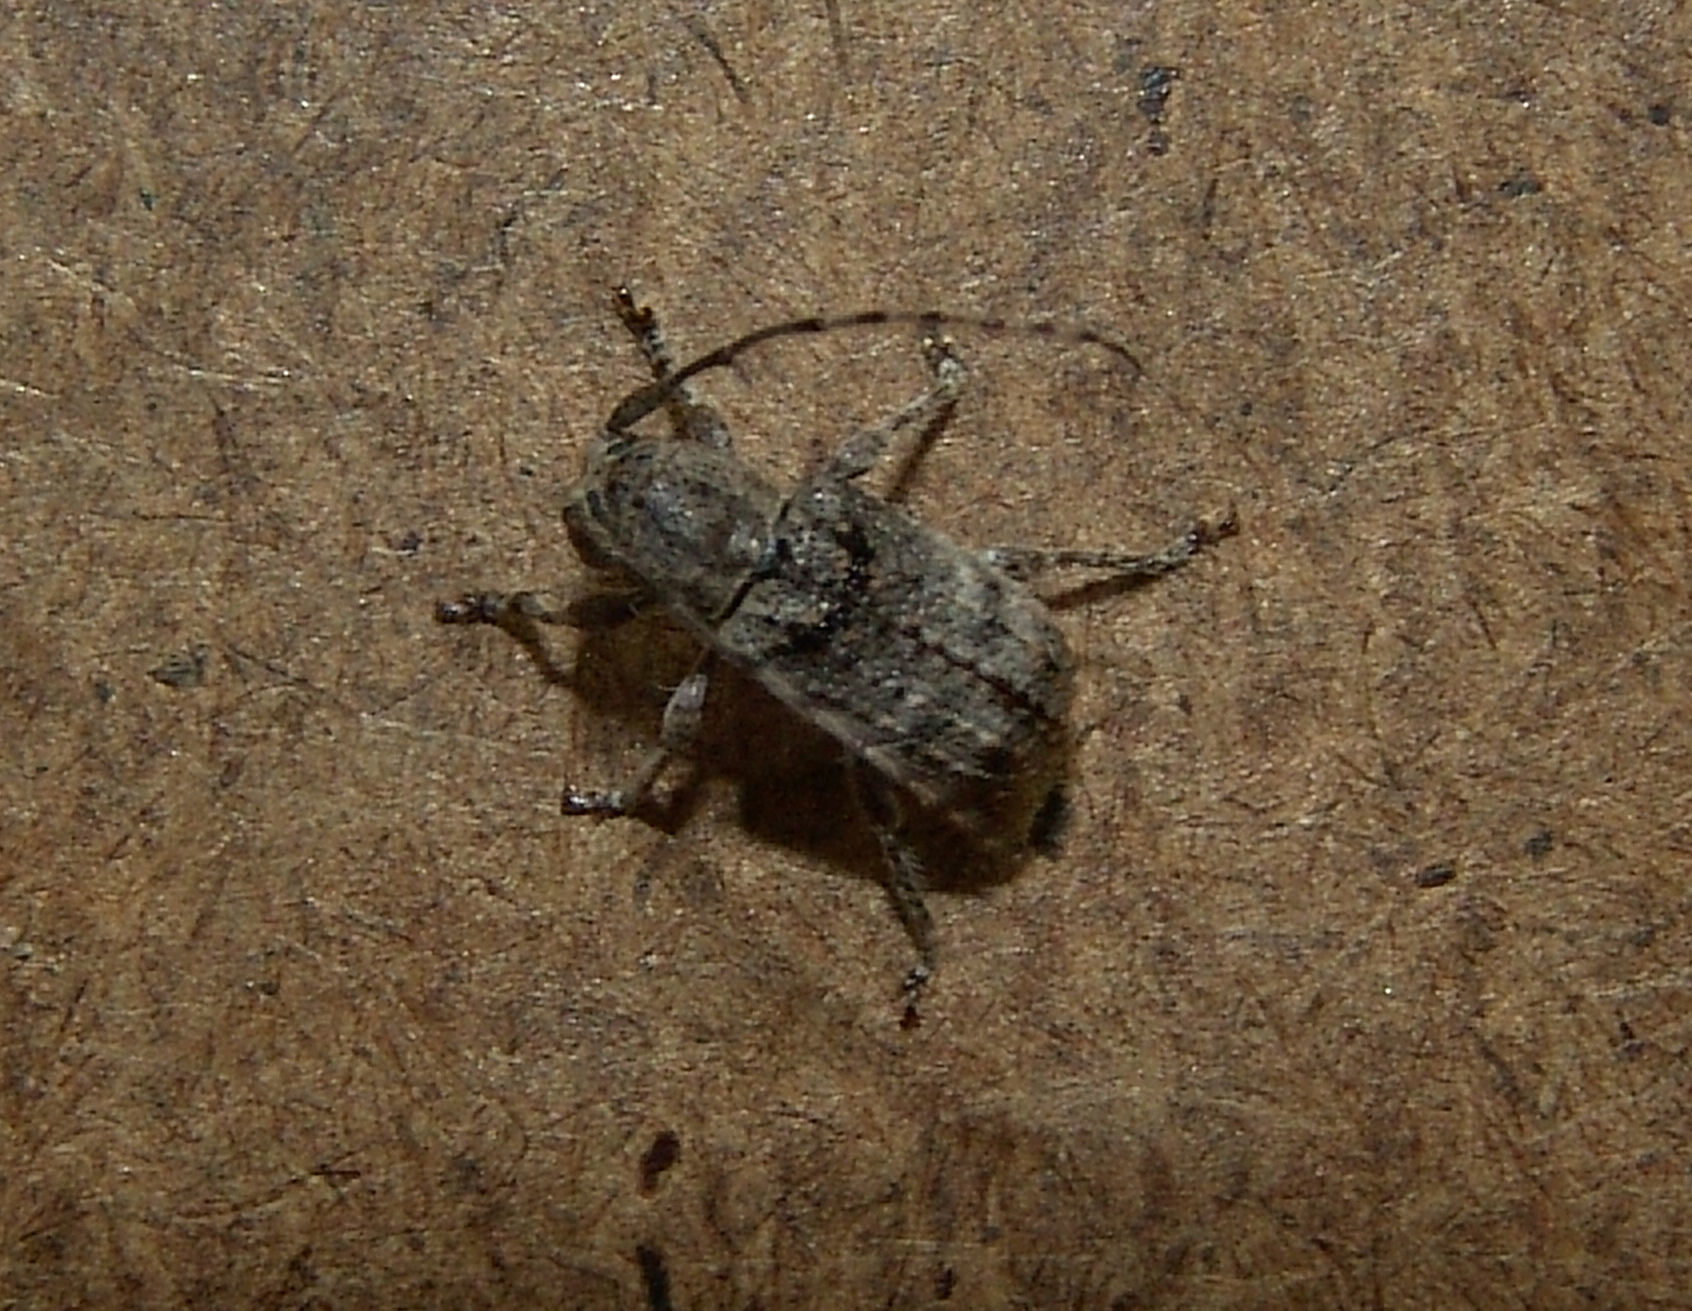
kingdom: Animalia
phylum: Arthropoda
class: Insecta
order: Coleoptera
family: Cerambycidae
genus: Ecyrus
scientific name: Ecyrus dasycerus
